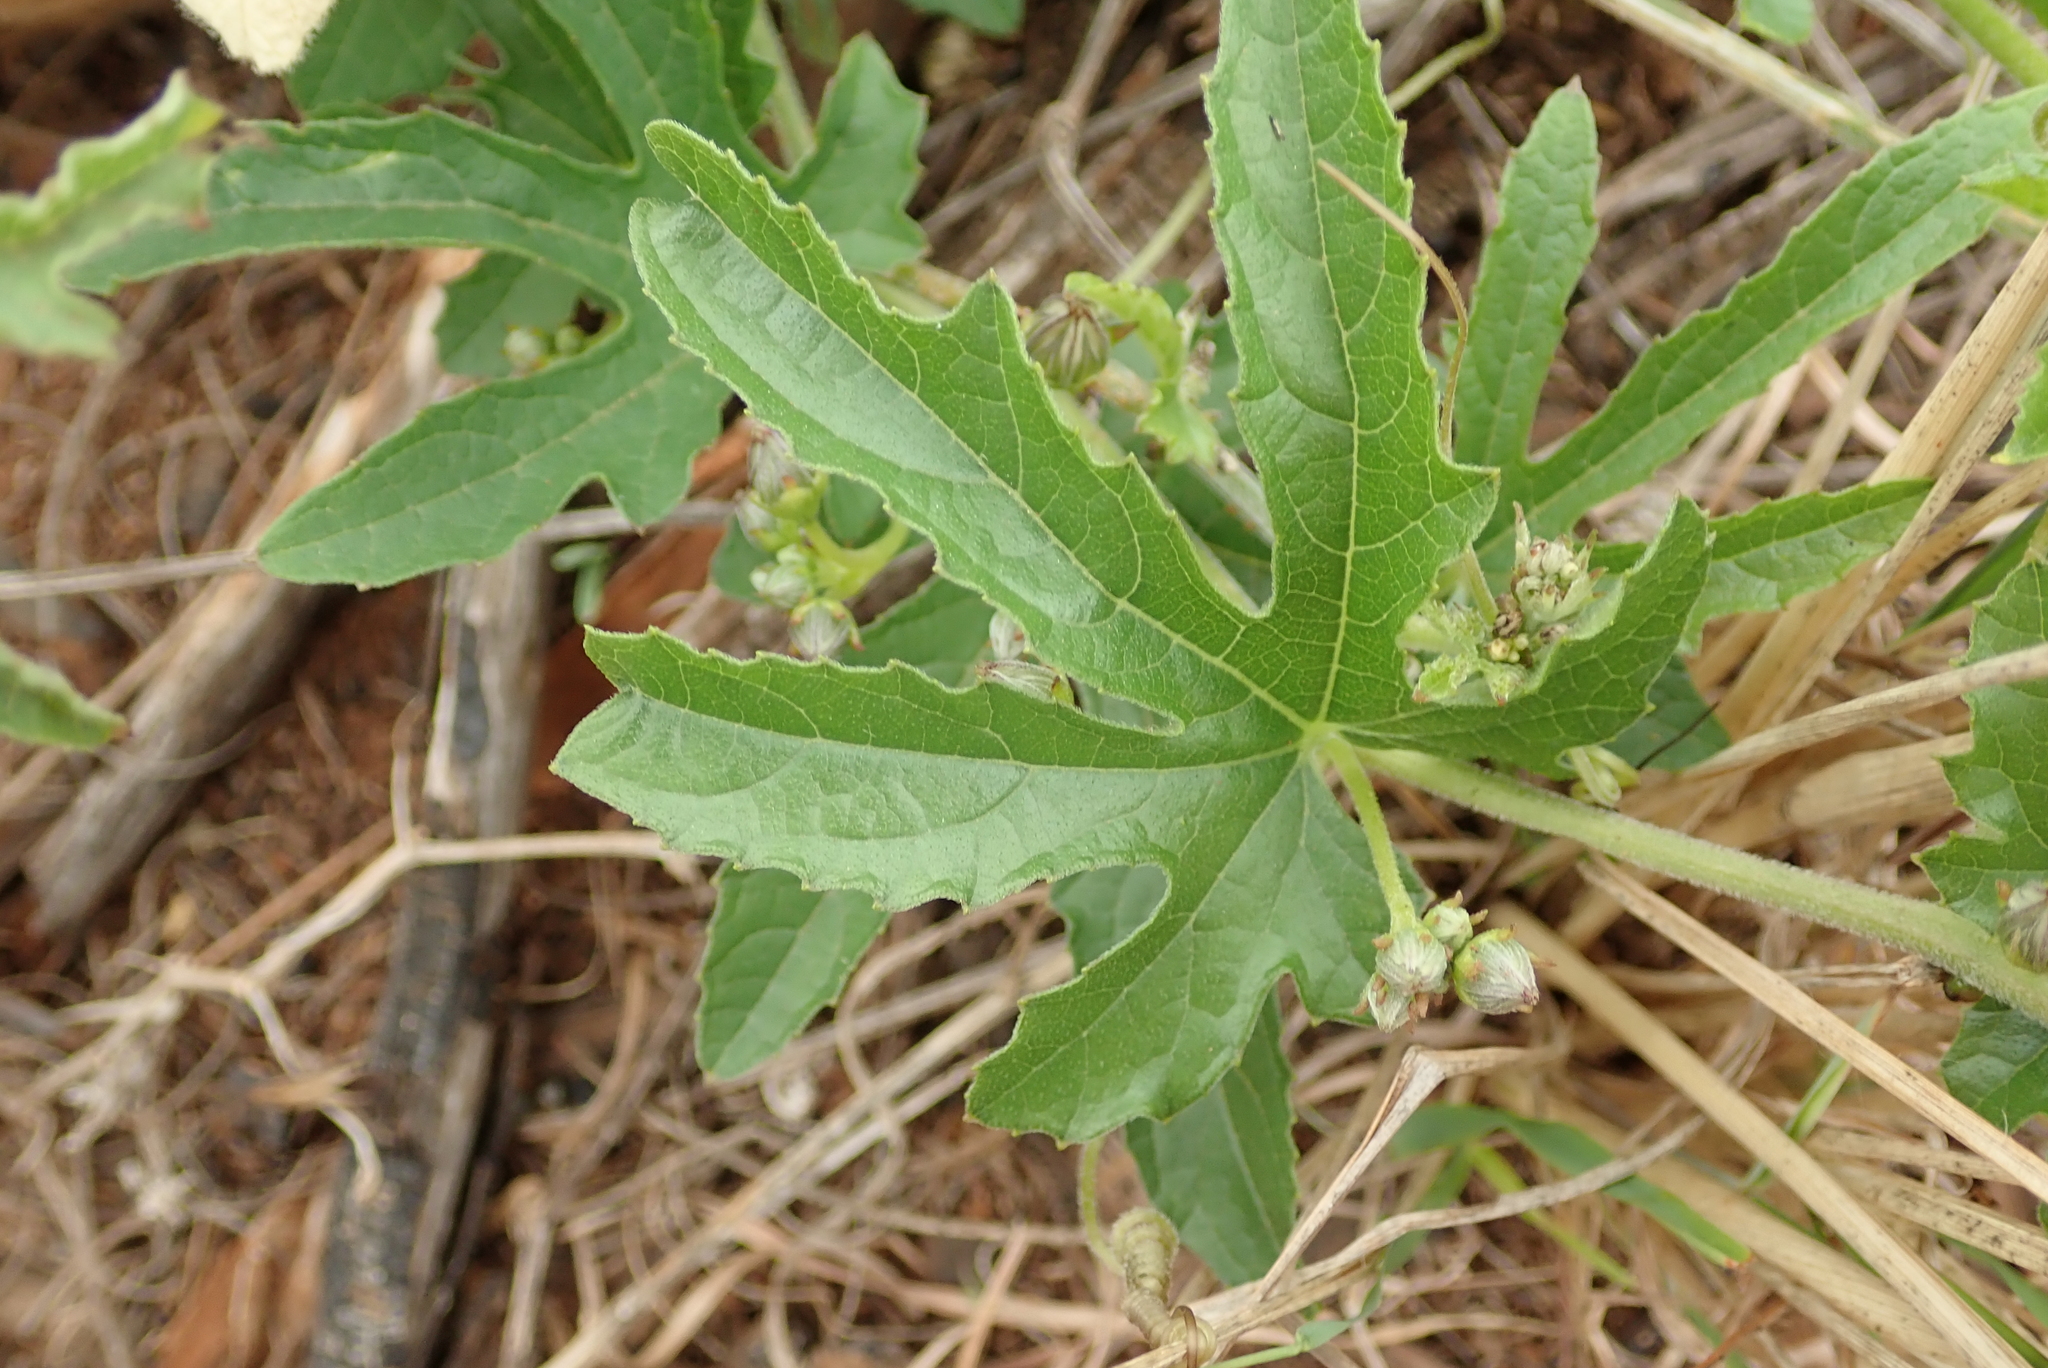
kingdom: Plantae
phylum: Tracheophyta
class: Magnoliopsida
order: Cucurbitales
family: Cucurbitaceae
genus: Coccinia
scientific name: Coccinia adoensis
